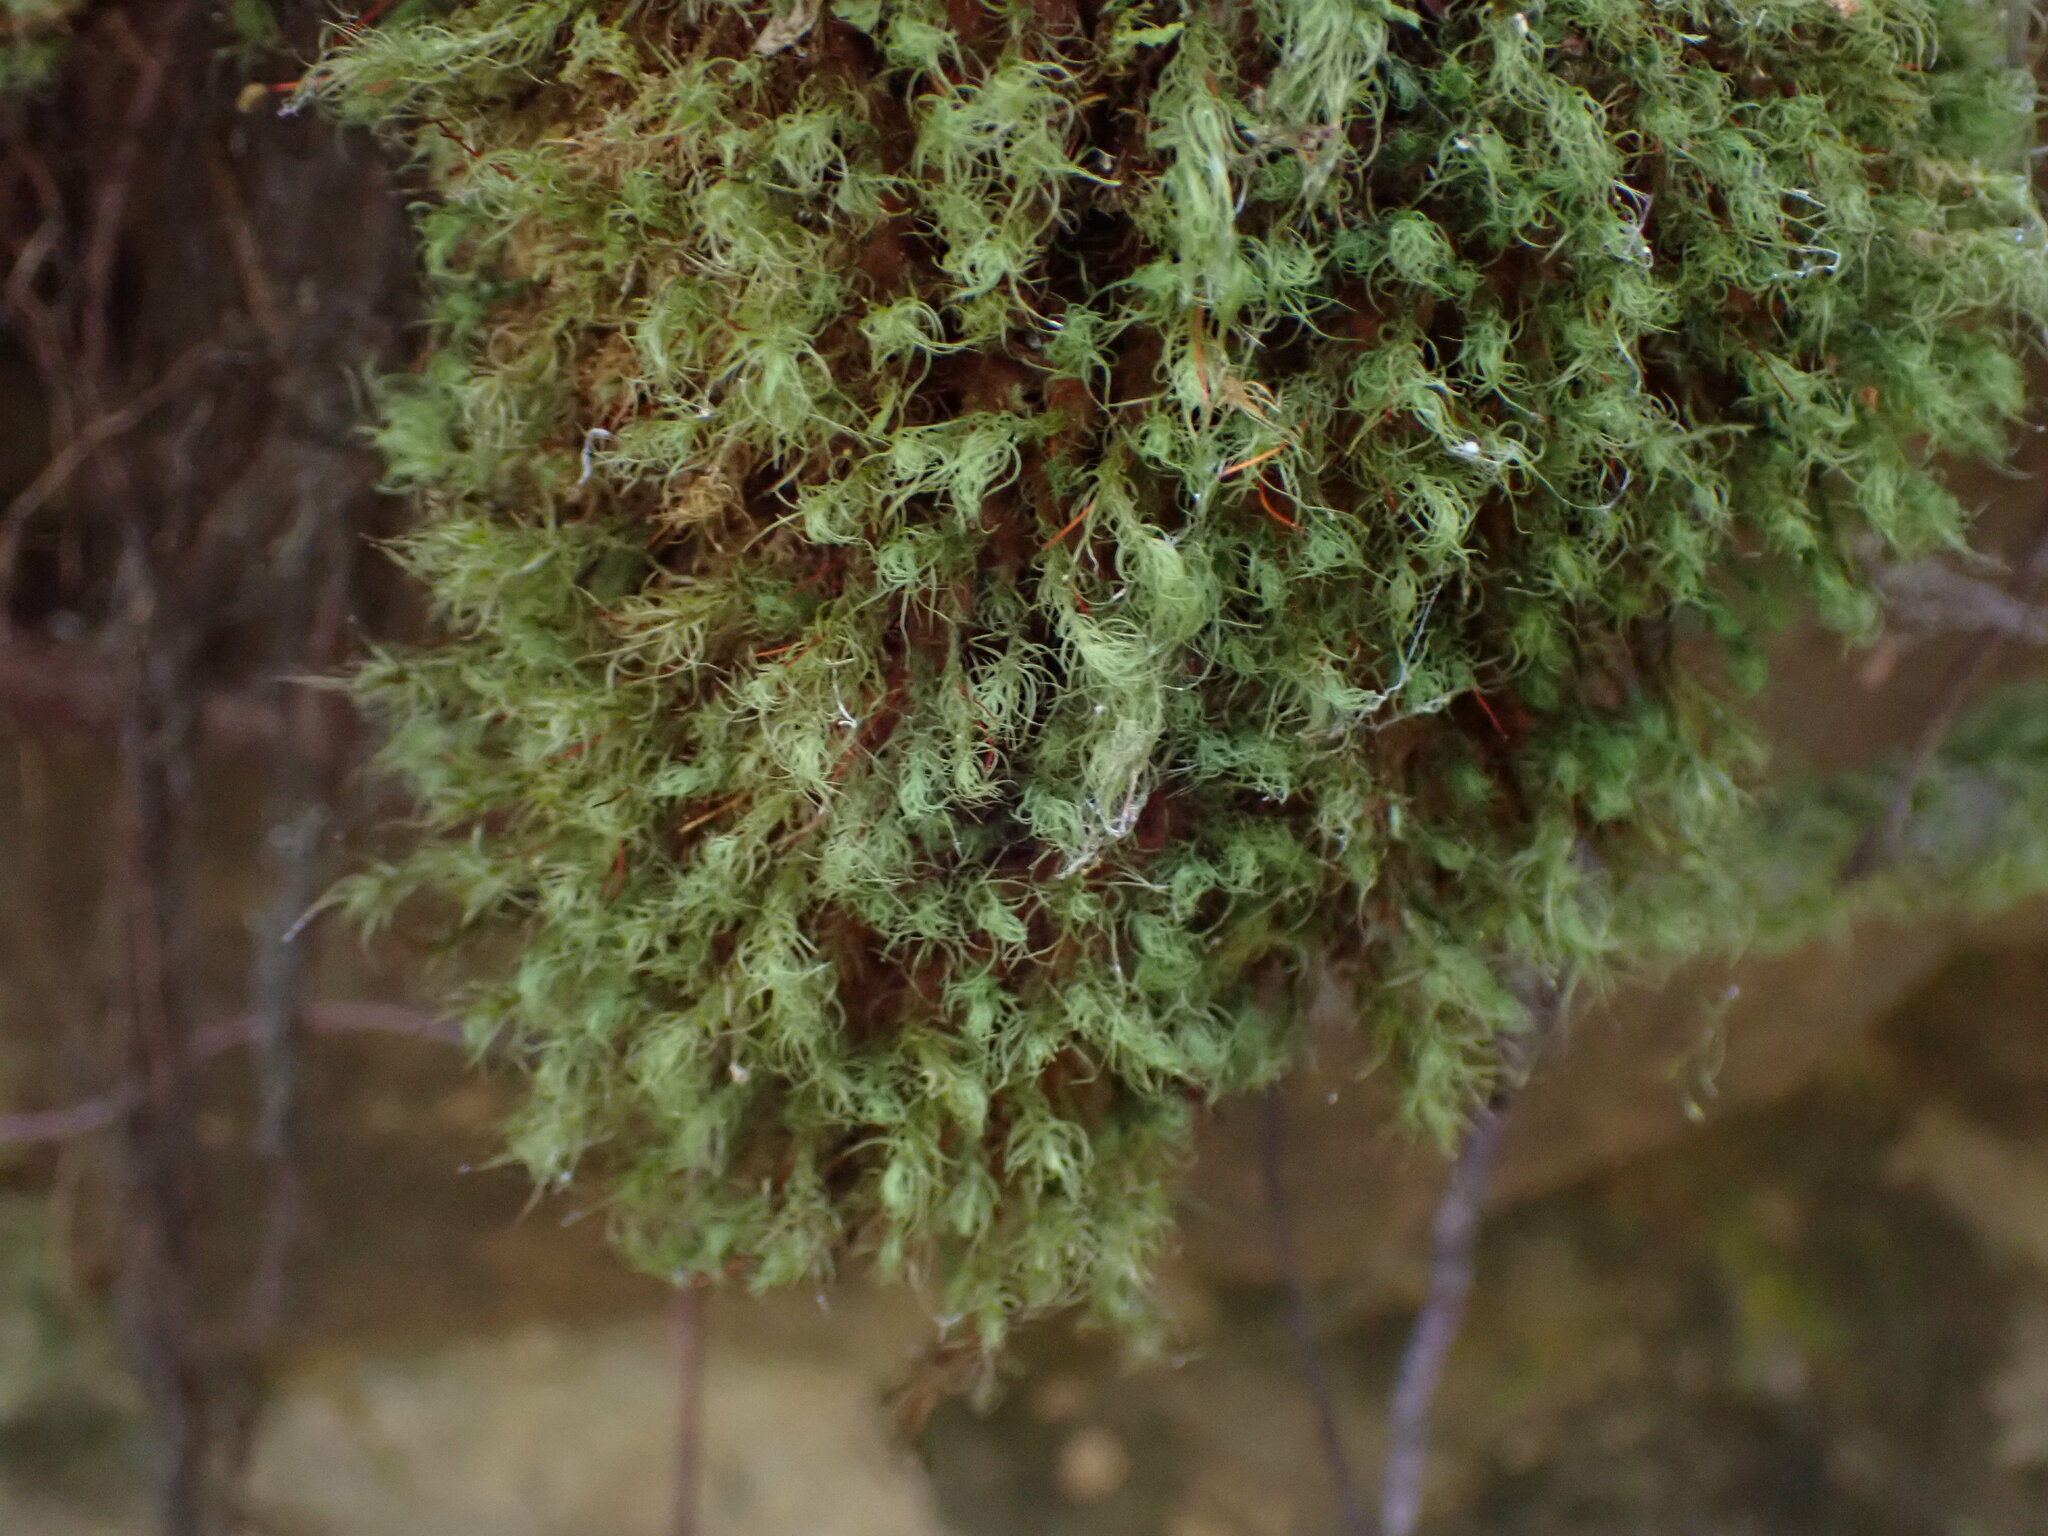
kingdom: Plantae
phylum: Bryophyta
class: Bryopsida
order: Bartramiales
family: Bartramiaceae
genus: Bartramia
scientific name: Bartramia ithyphylla
